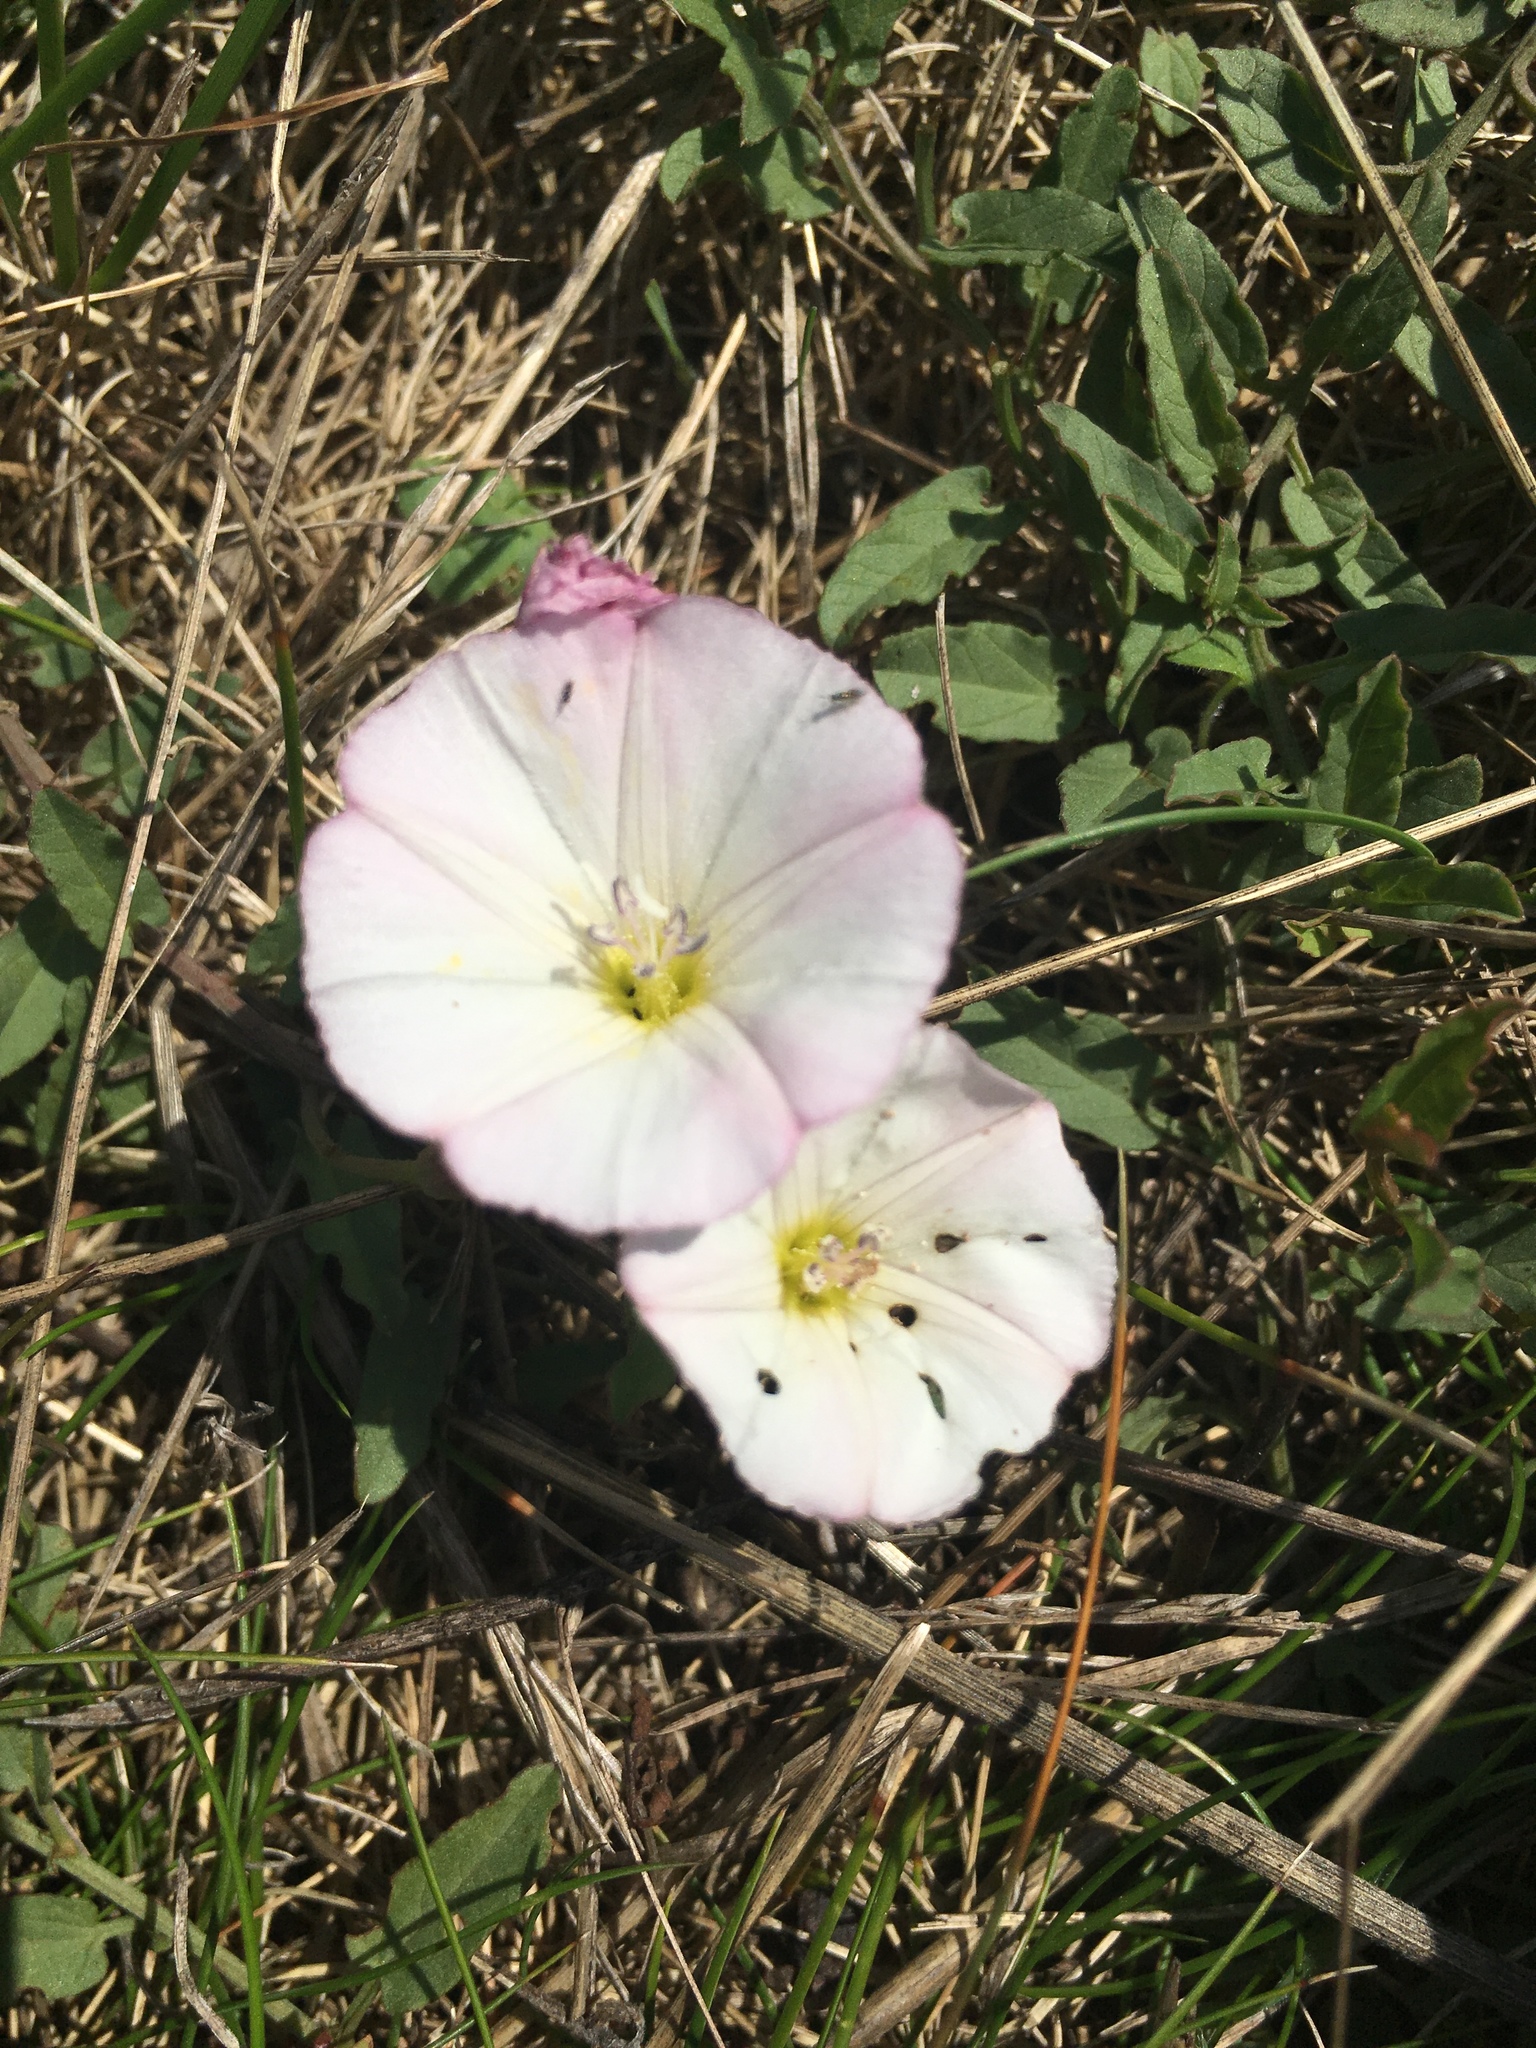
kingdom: Plantae
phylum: Tracheophyta
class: Magnoliopsida
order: Solanales
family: Convolvulaceae
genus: Convolvulus
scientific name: Convolvulus arvensis
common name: Field bindweed
